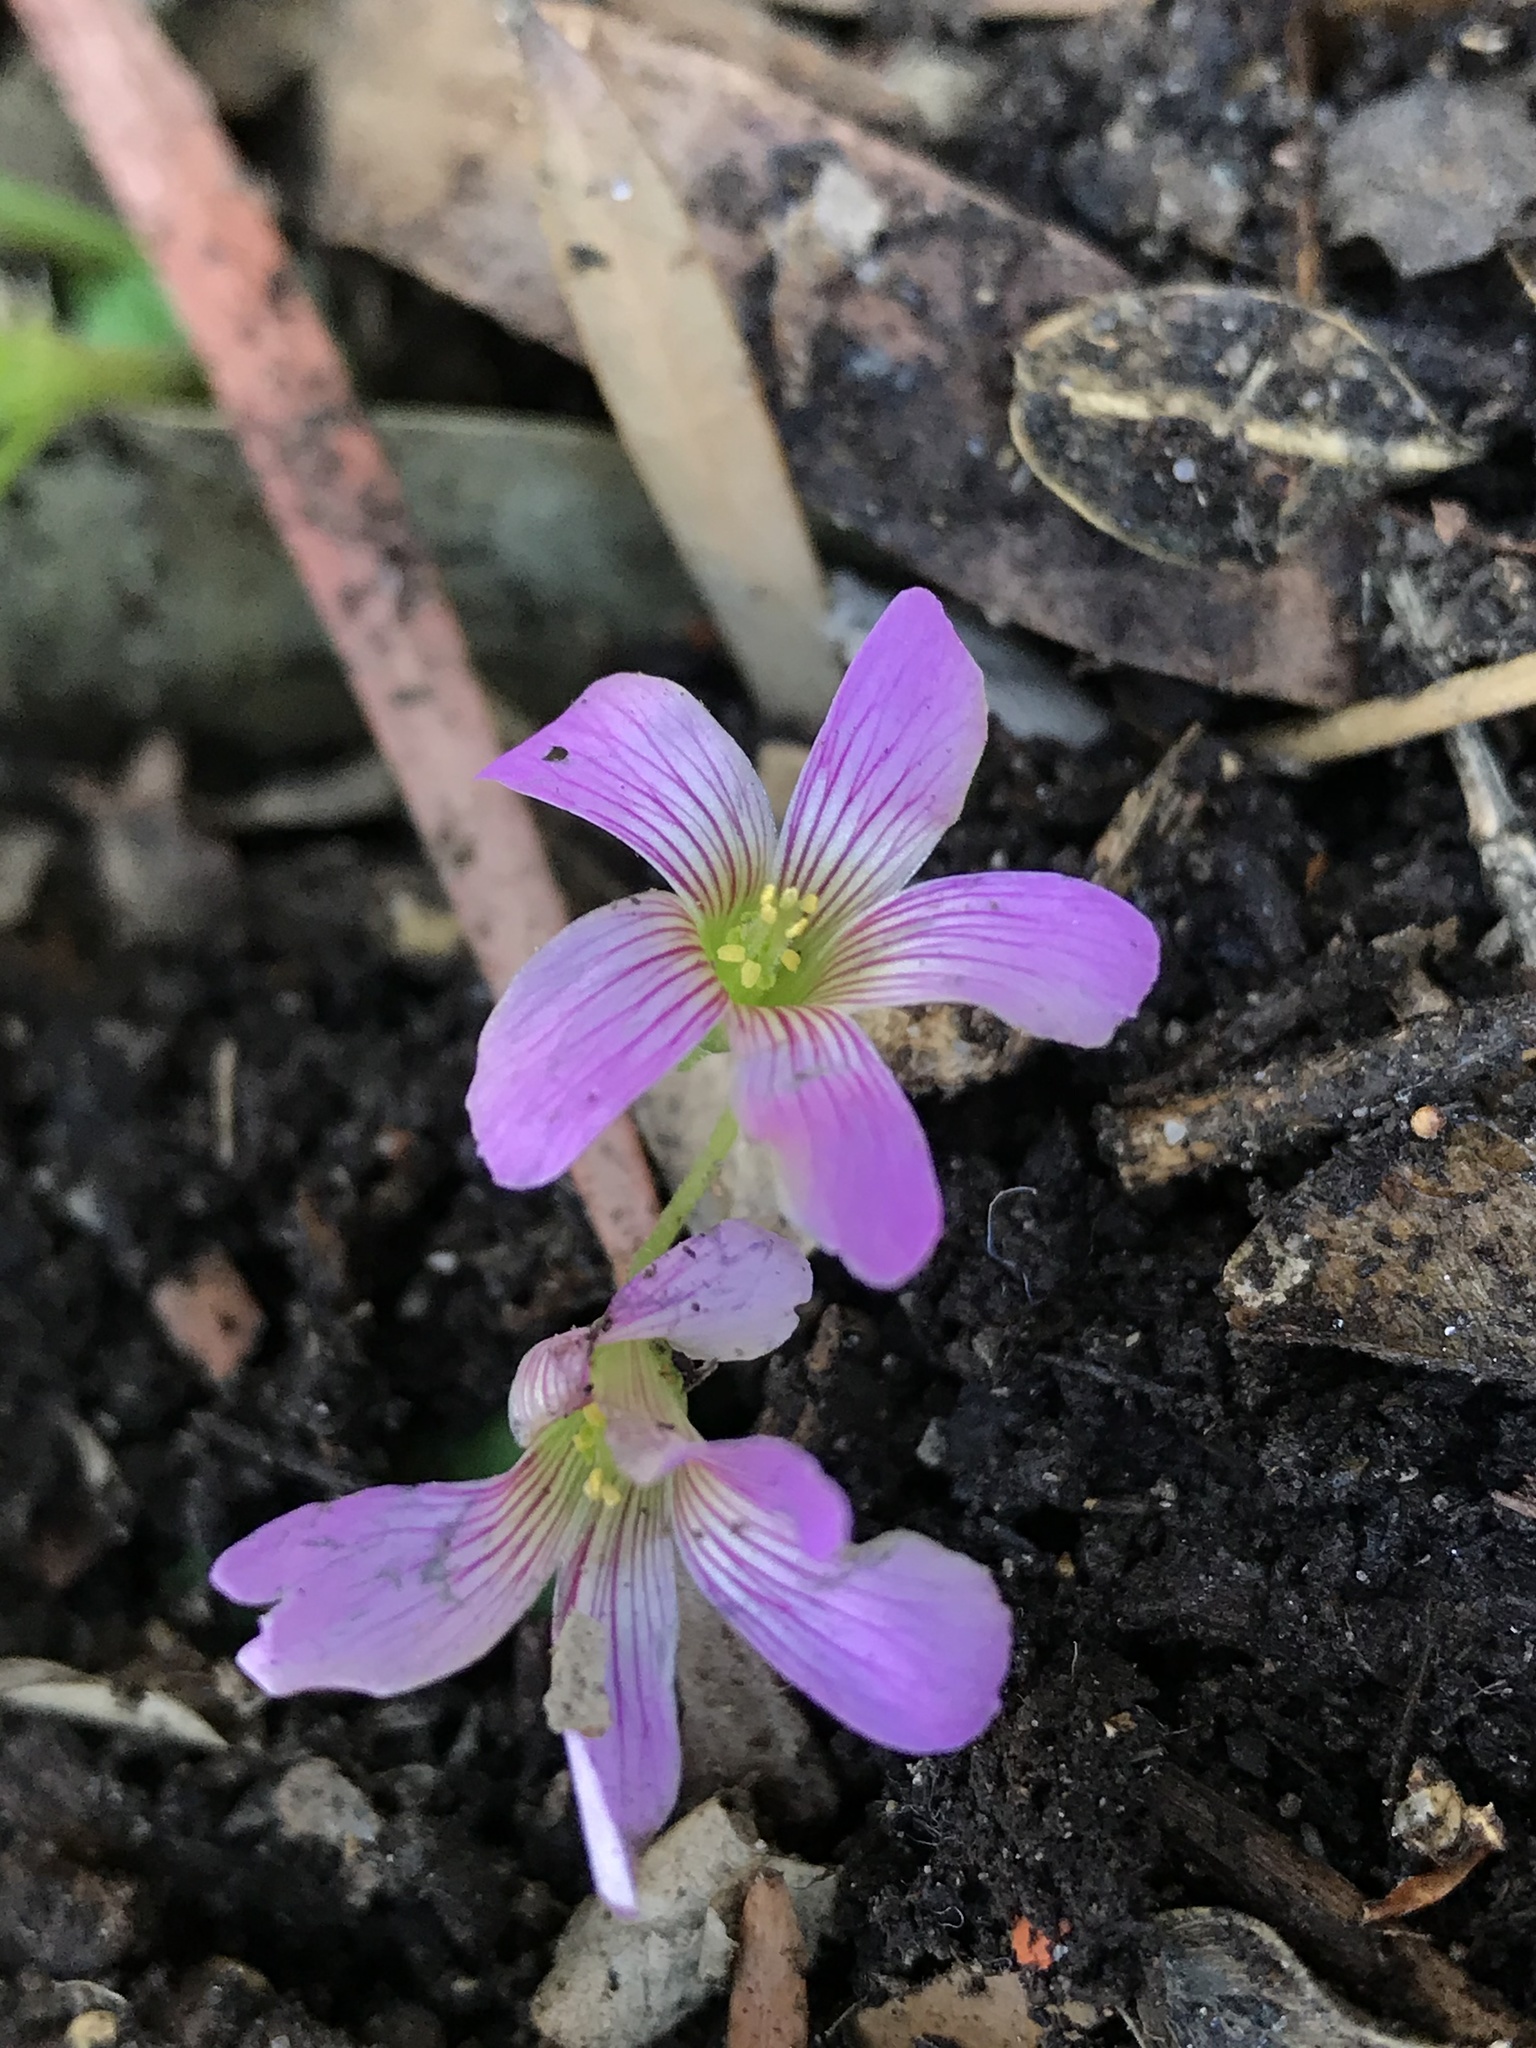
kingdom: Plantae
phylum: Tracheophyta
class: Magnoliopsida
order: Oxalidales
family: Oxalidaceae
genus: Oxalis
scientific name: Oxalis debilis
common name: Large-flowered pink-sorrel
